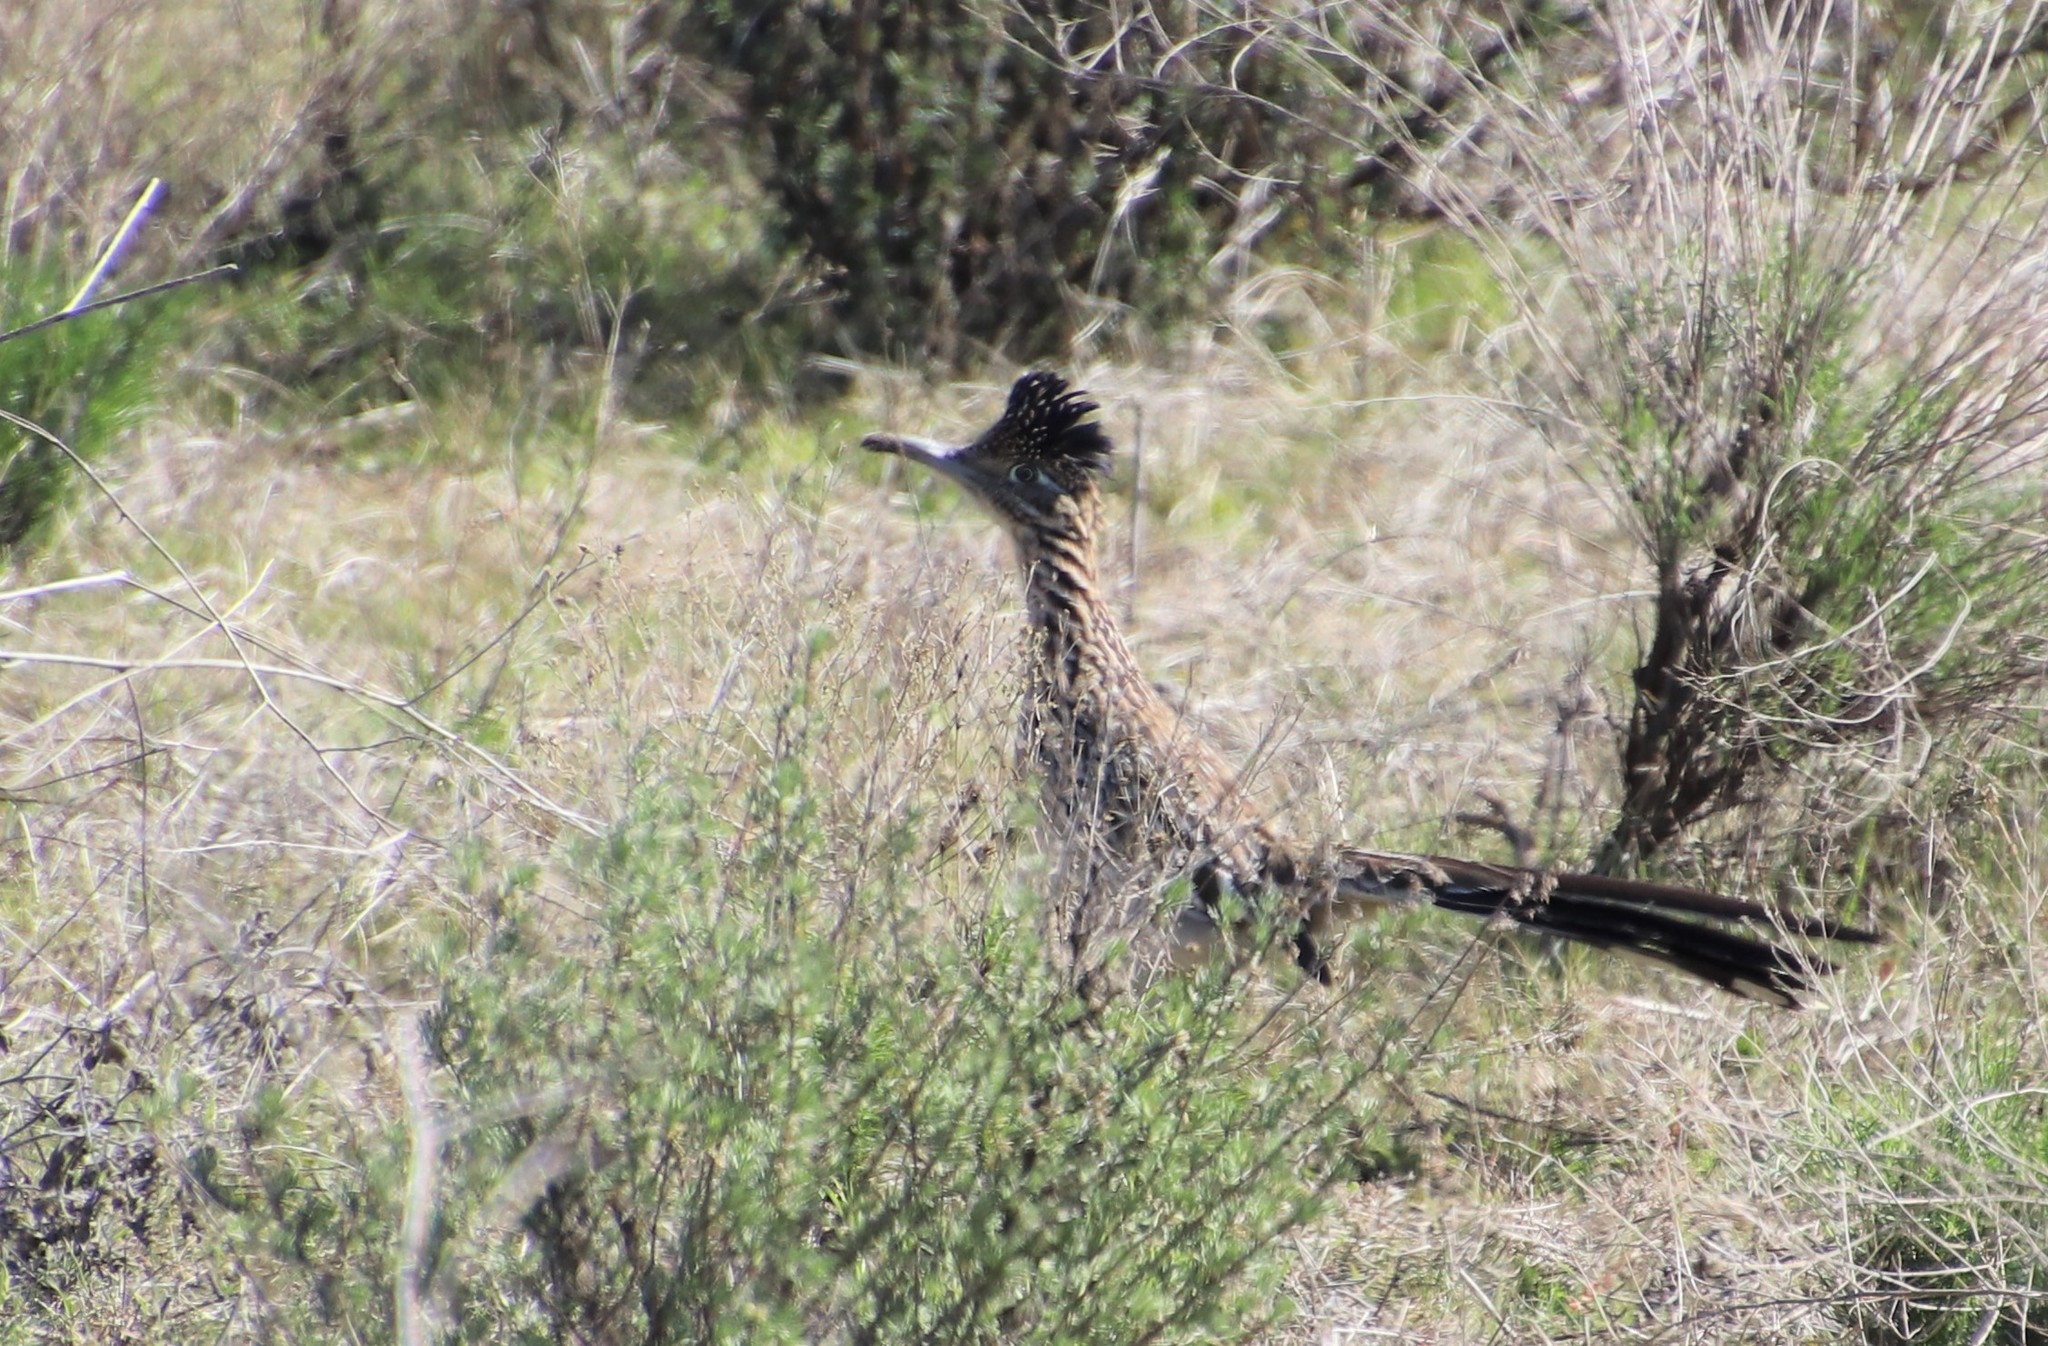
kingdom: Animalia
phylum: Chordata
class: Aves
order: Cuculiformes
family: Cuculidae
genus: Geococcyx
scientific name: Geococcyx californianus
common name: Greater roadrunner
